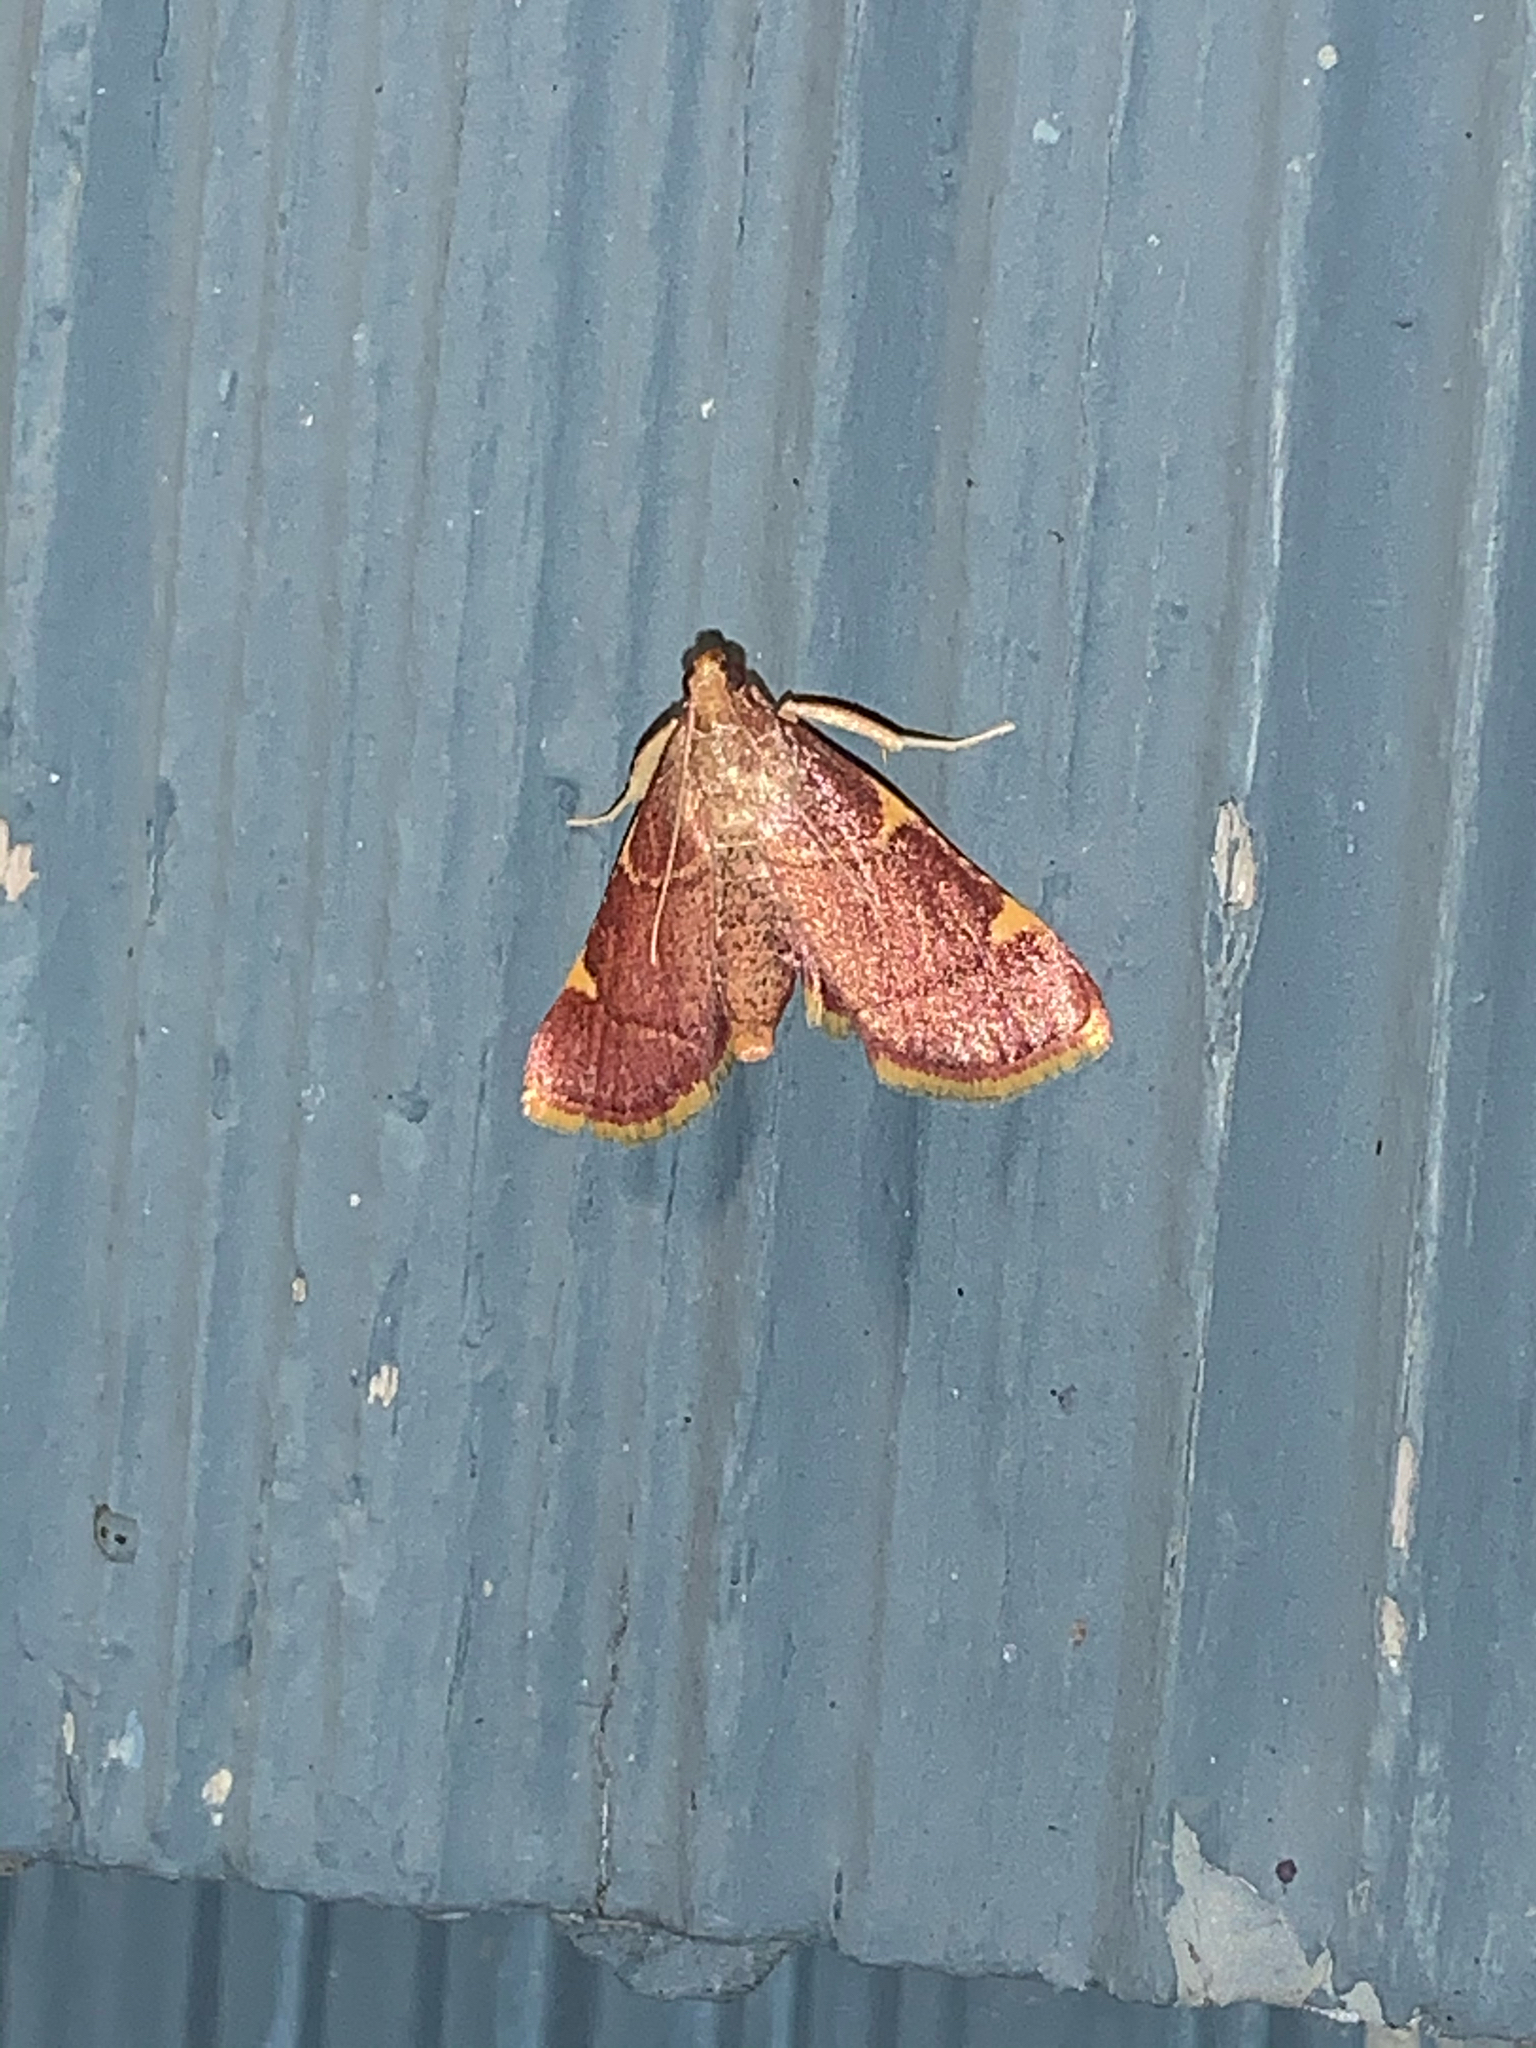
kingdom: Animalia
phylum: Arthropoda
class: Insecta
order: Lepidoptera
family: Pyralidae
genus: Hypsopygia
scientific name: Hypsopygia olinalis
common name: Yellow-fringed dolichomia moth
